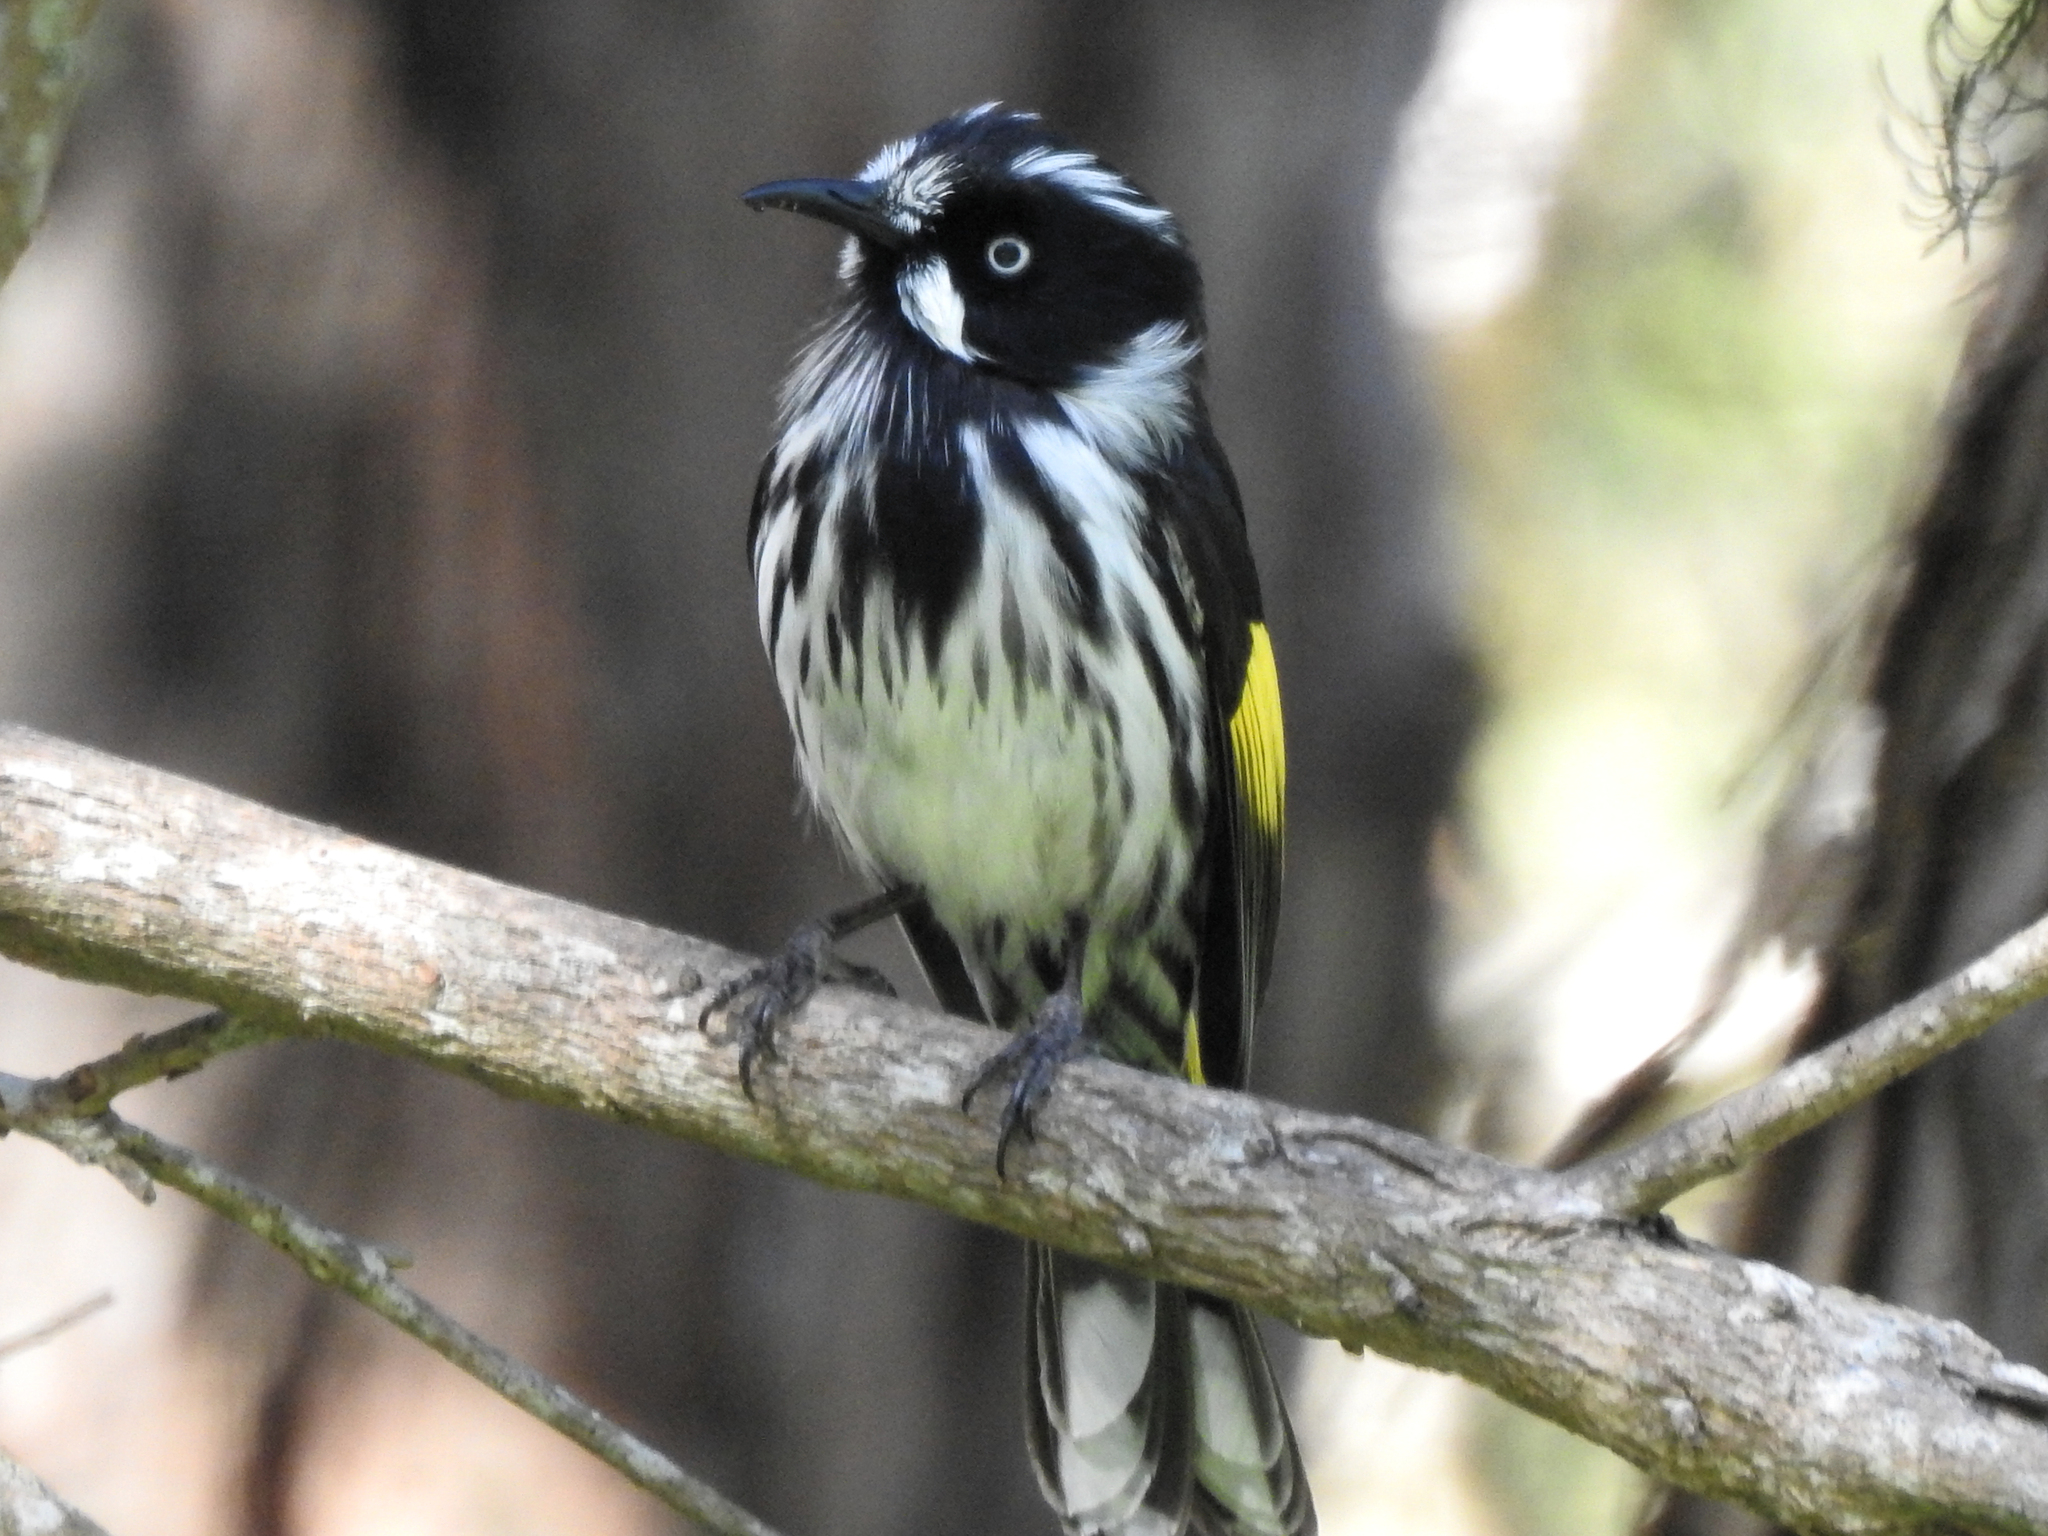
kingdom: Animalia
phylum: Chordata
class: Aves
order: Passeriformes
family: Meliphagidae
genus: Phylidonyris
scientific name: Phylidonyris novaehollandiae
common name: New holland honeyeater
